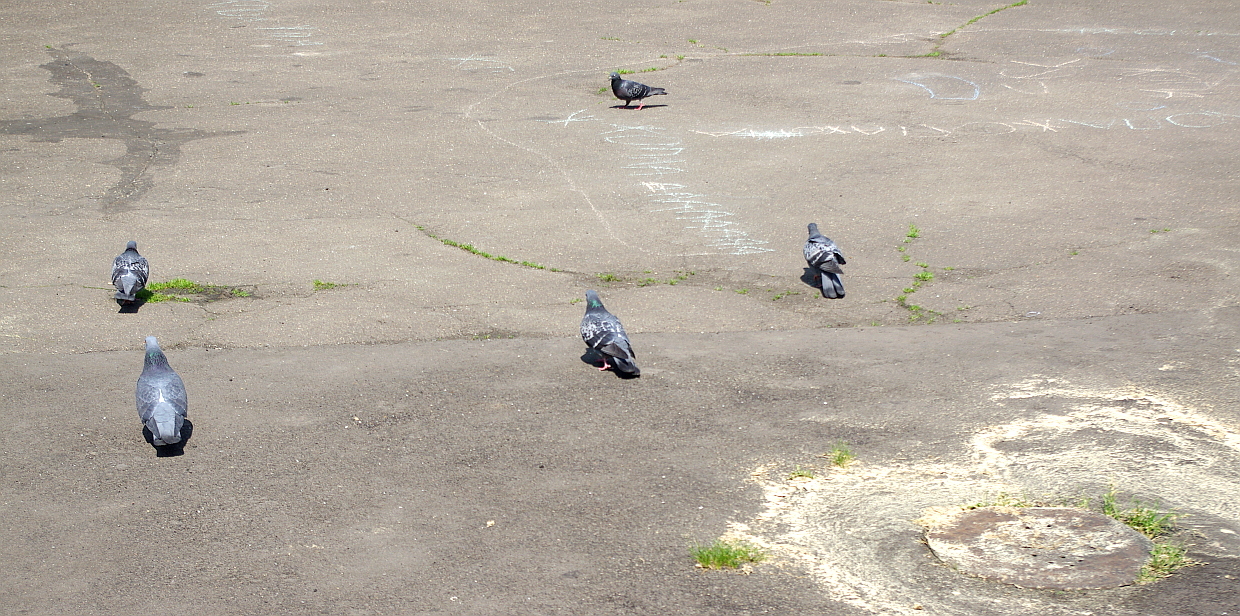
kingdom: Animalia
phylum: Chordata
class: Aves
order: Columbiformes
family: Columbidae
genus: Columba
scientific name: Columba livia
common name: Rock pigeon
